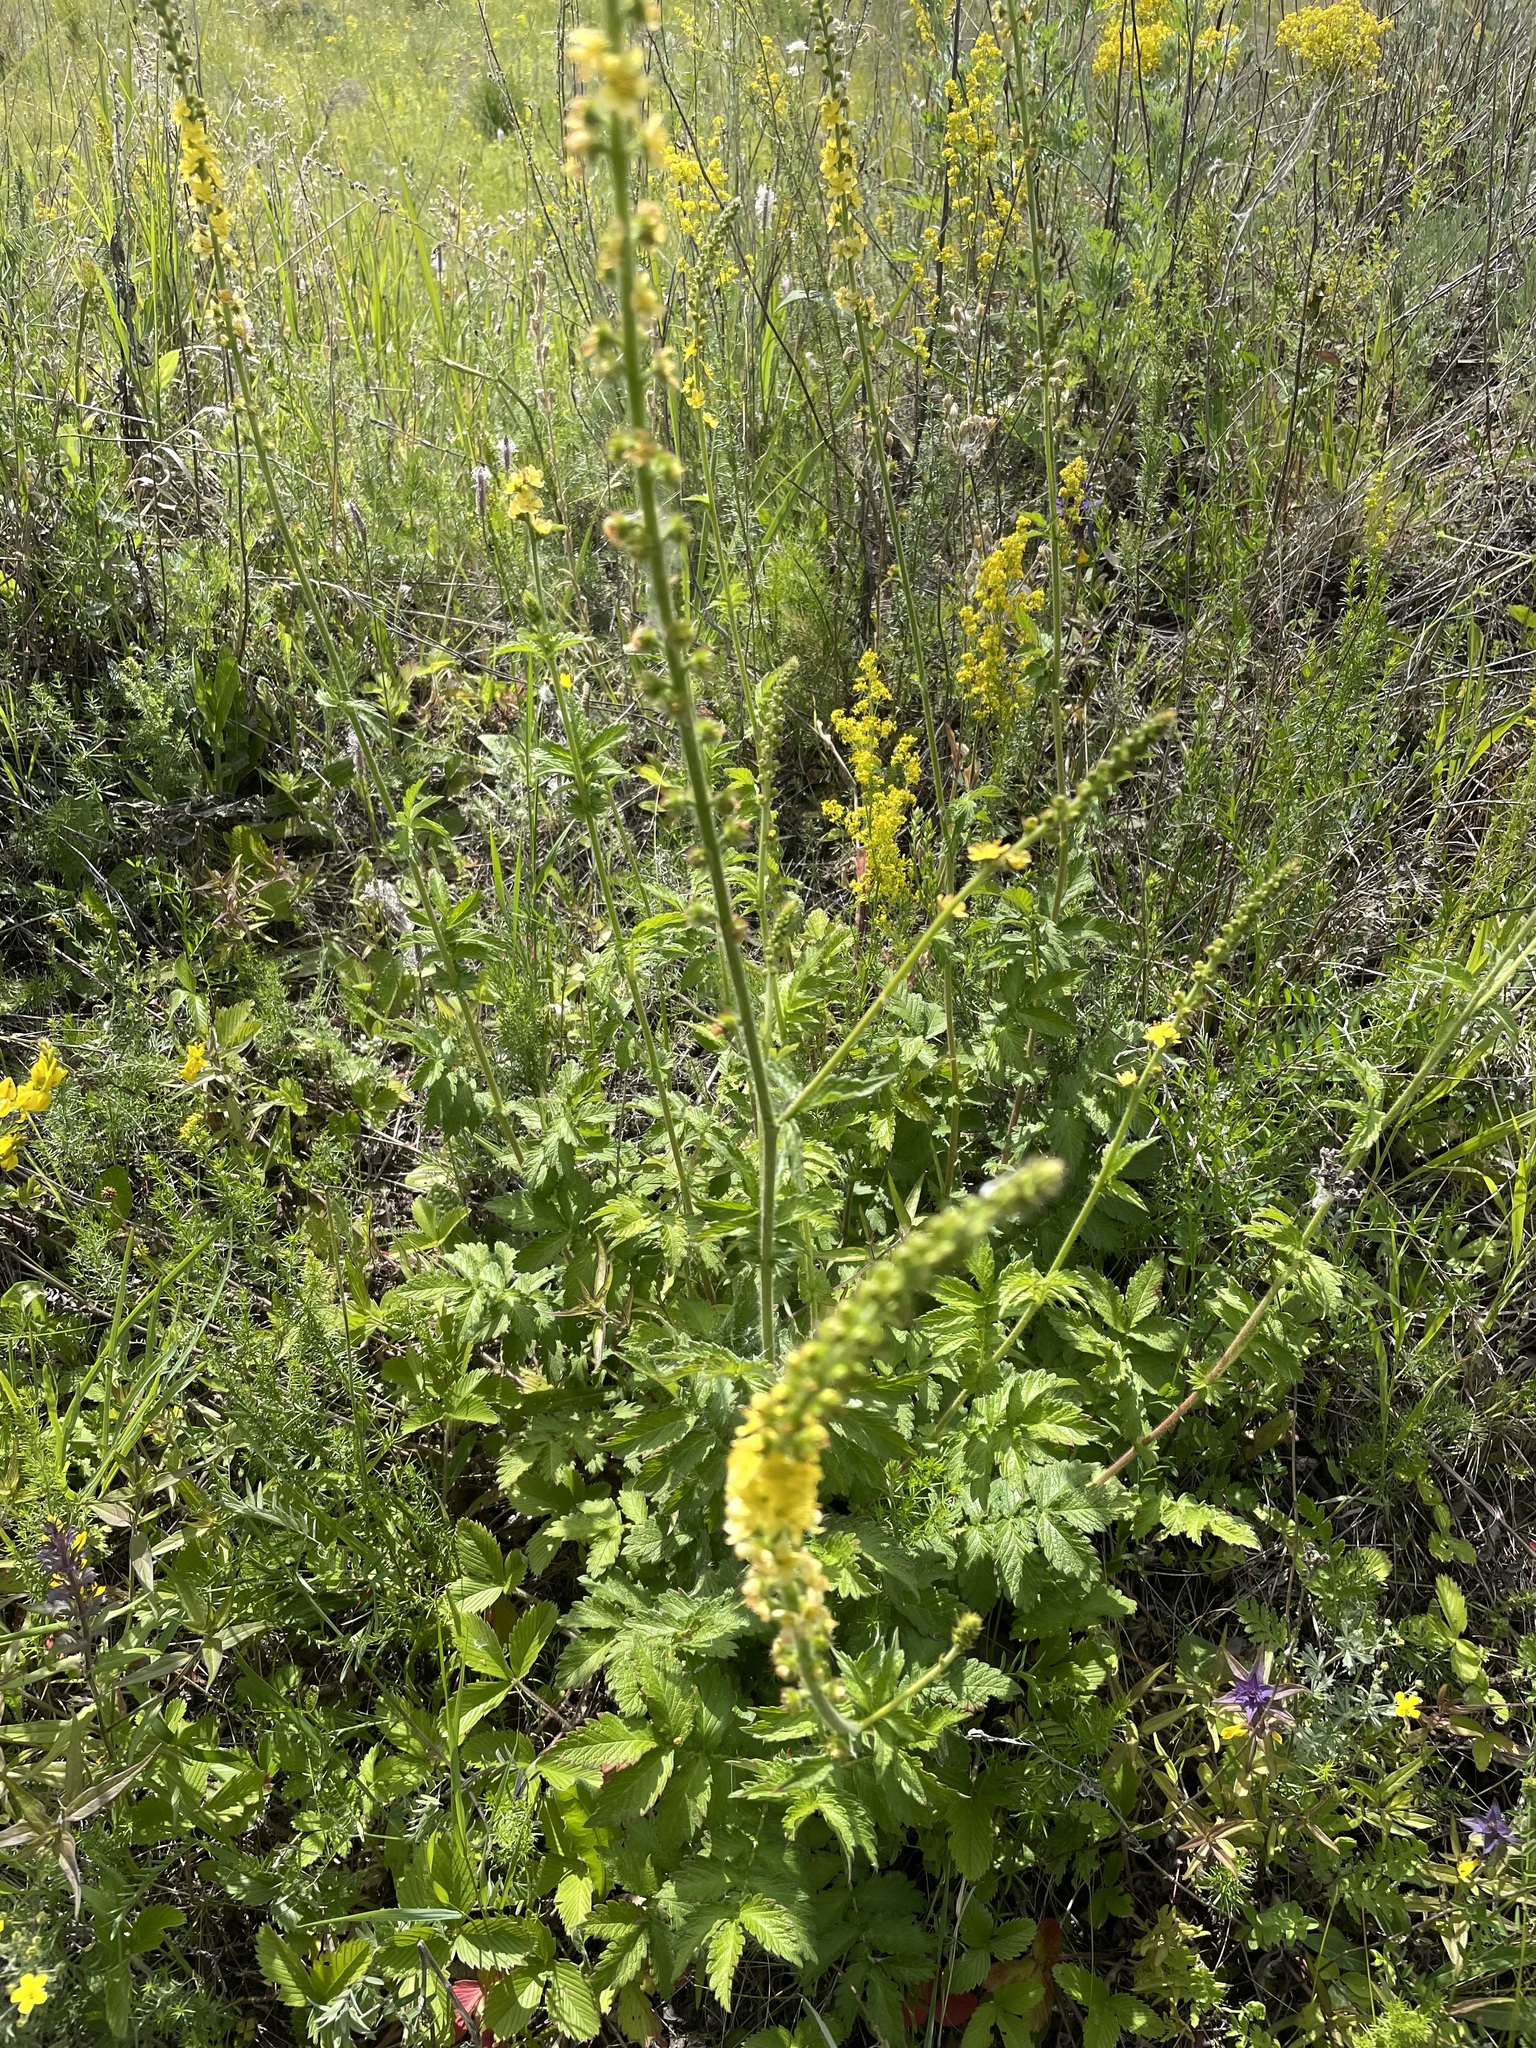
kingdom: Plantae
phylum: Tracheophyta
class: Magnoliopsida
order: Rosales
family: Rosaceae
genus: Agrimonia
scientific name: Agrimonia eupatoria
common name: Agrimony
